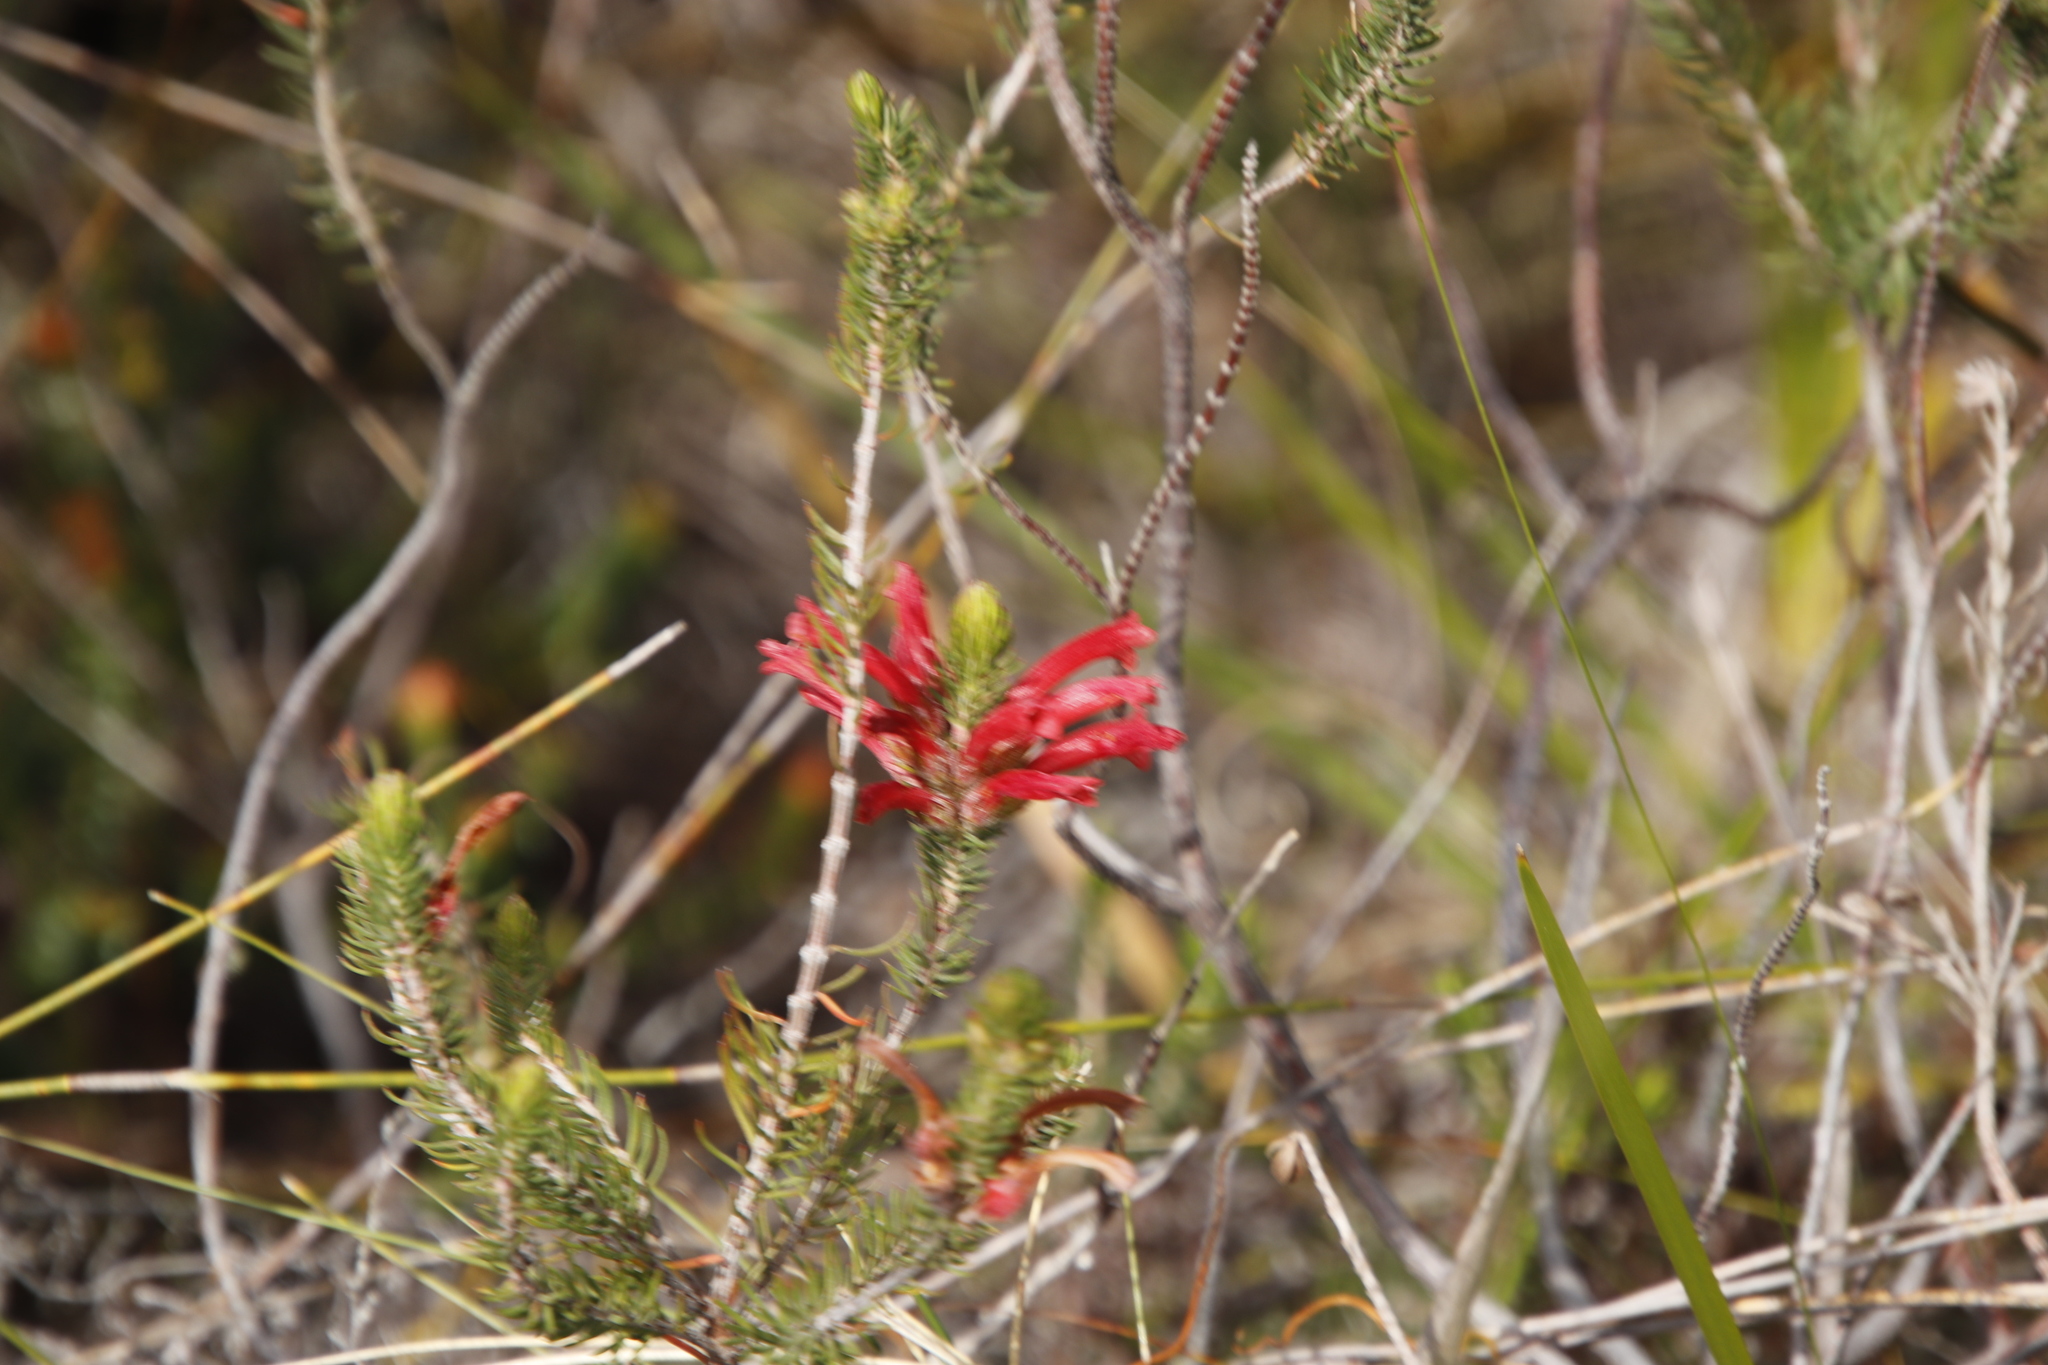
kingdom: Plantae
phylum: Tracheophyta
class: Magnoliopsida
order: Ericales
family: Ericaceae
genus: Erica
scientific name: Erica abietina
